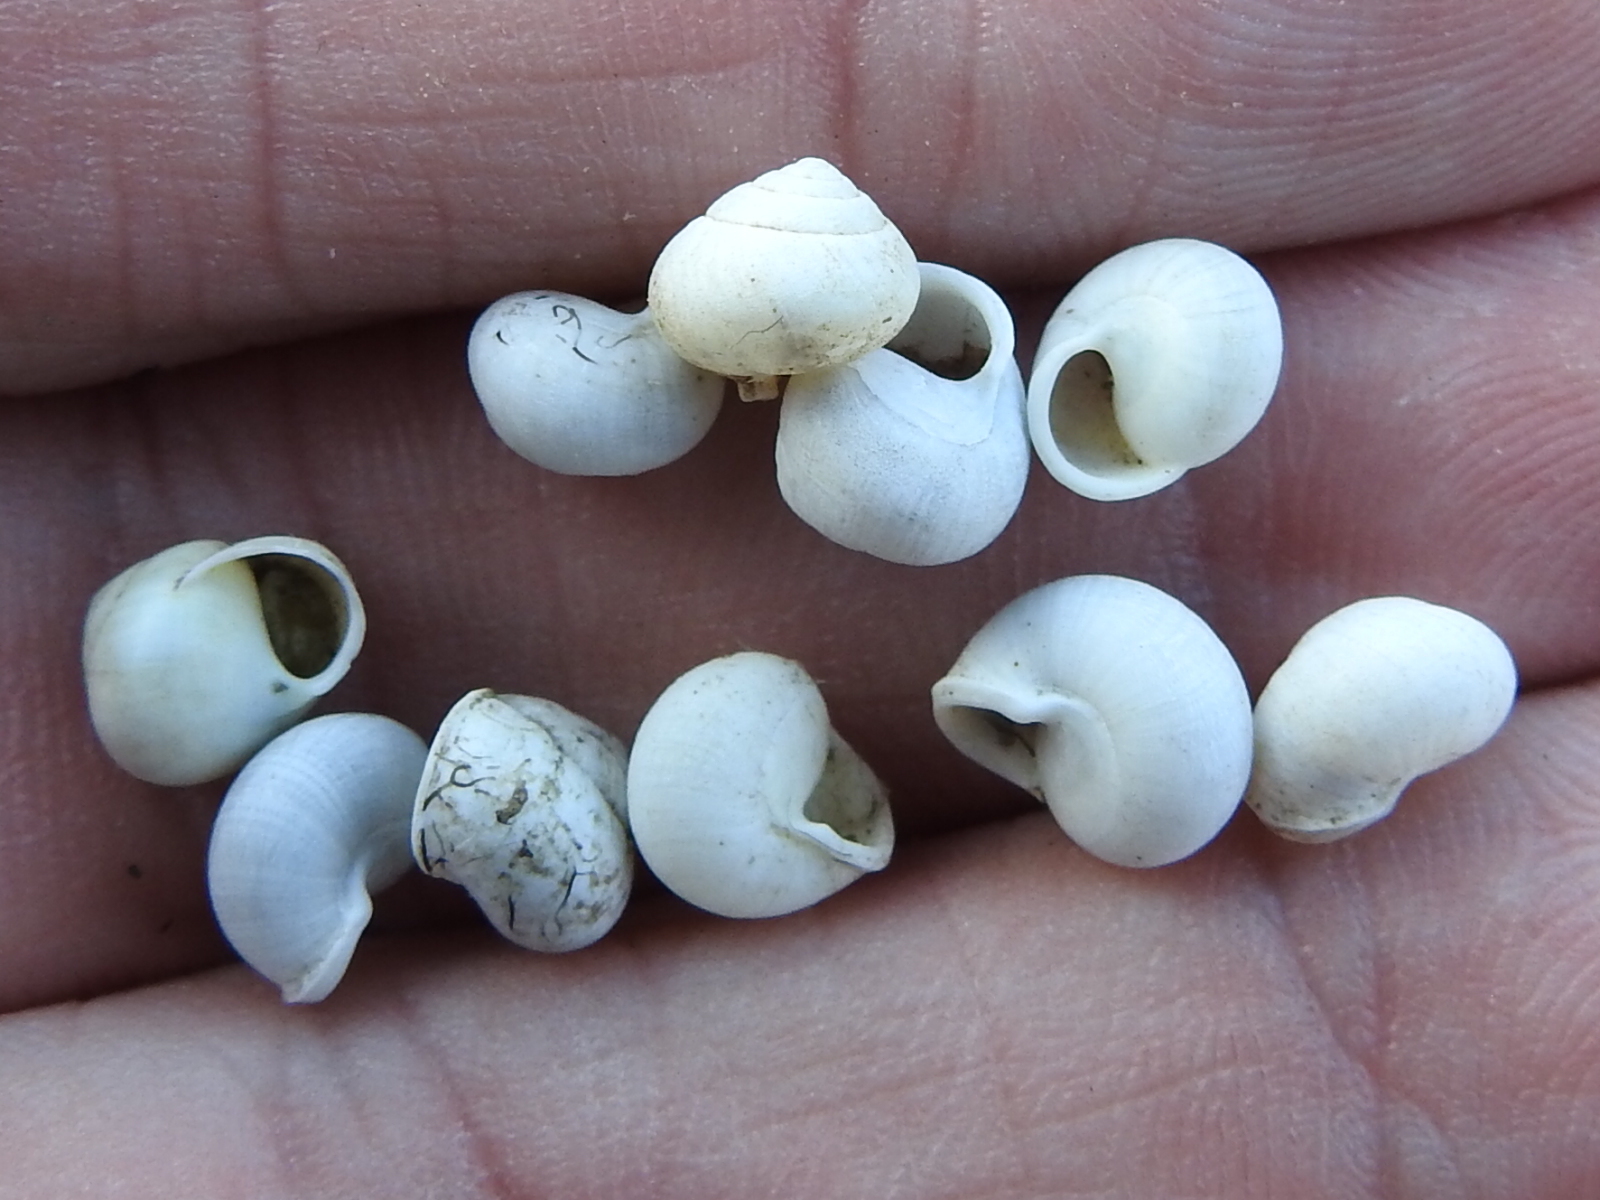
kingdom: Animalia
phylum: Mollusca
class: Gastropoda
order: Cycloneritida
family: Helicinidae
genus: Helicina
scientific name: Helicina orbiculata
